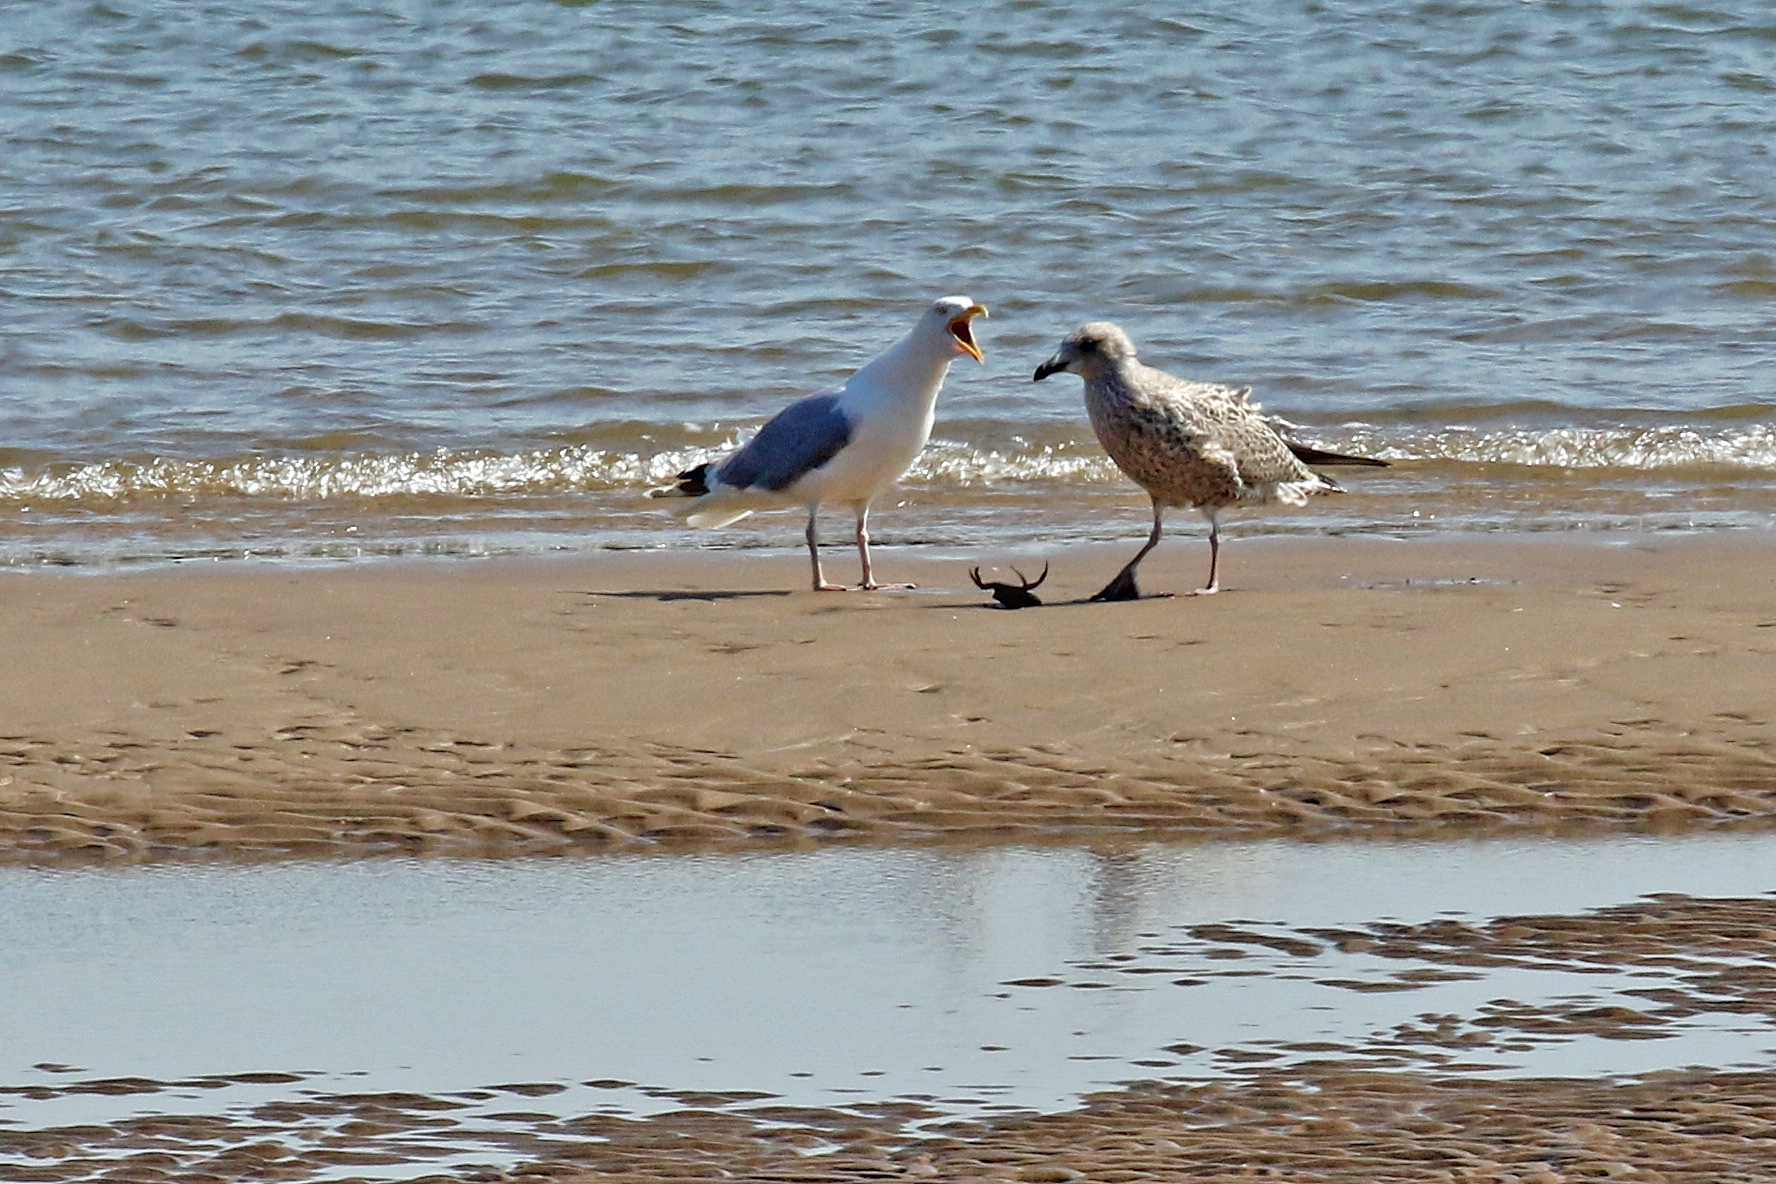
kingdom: Animalia
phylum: Chordata
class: Aves
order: Charadriiformes
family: Laridae
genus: Larus
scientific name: Larus argentatus
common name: Herring gull
